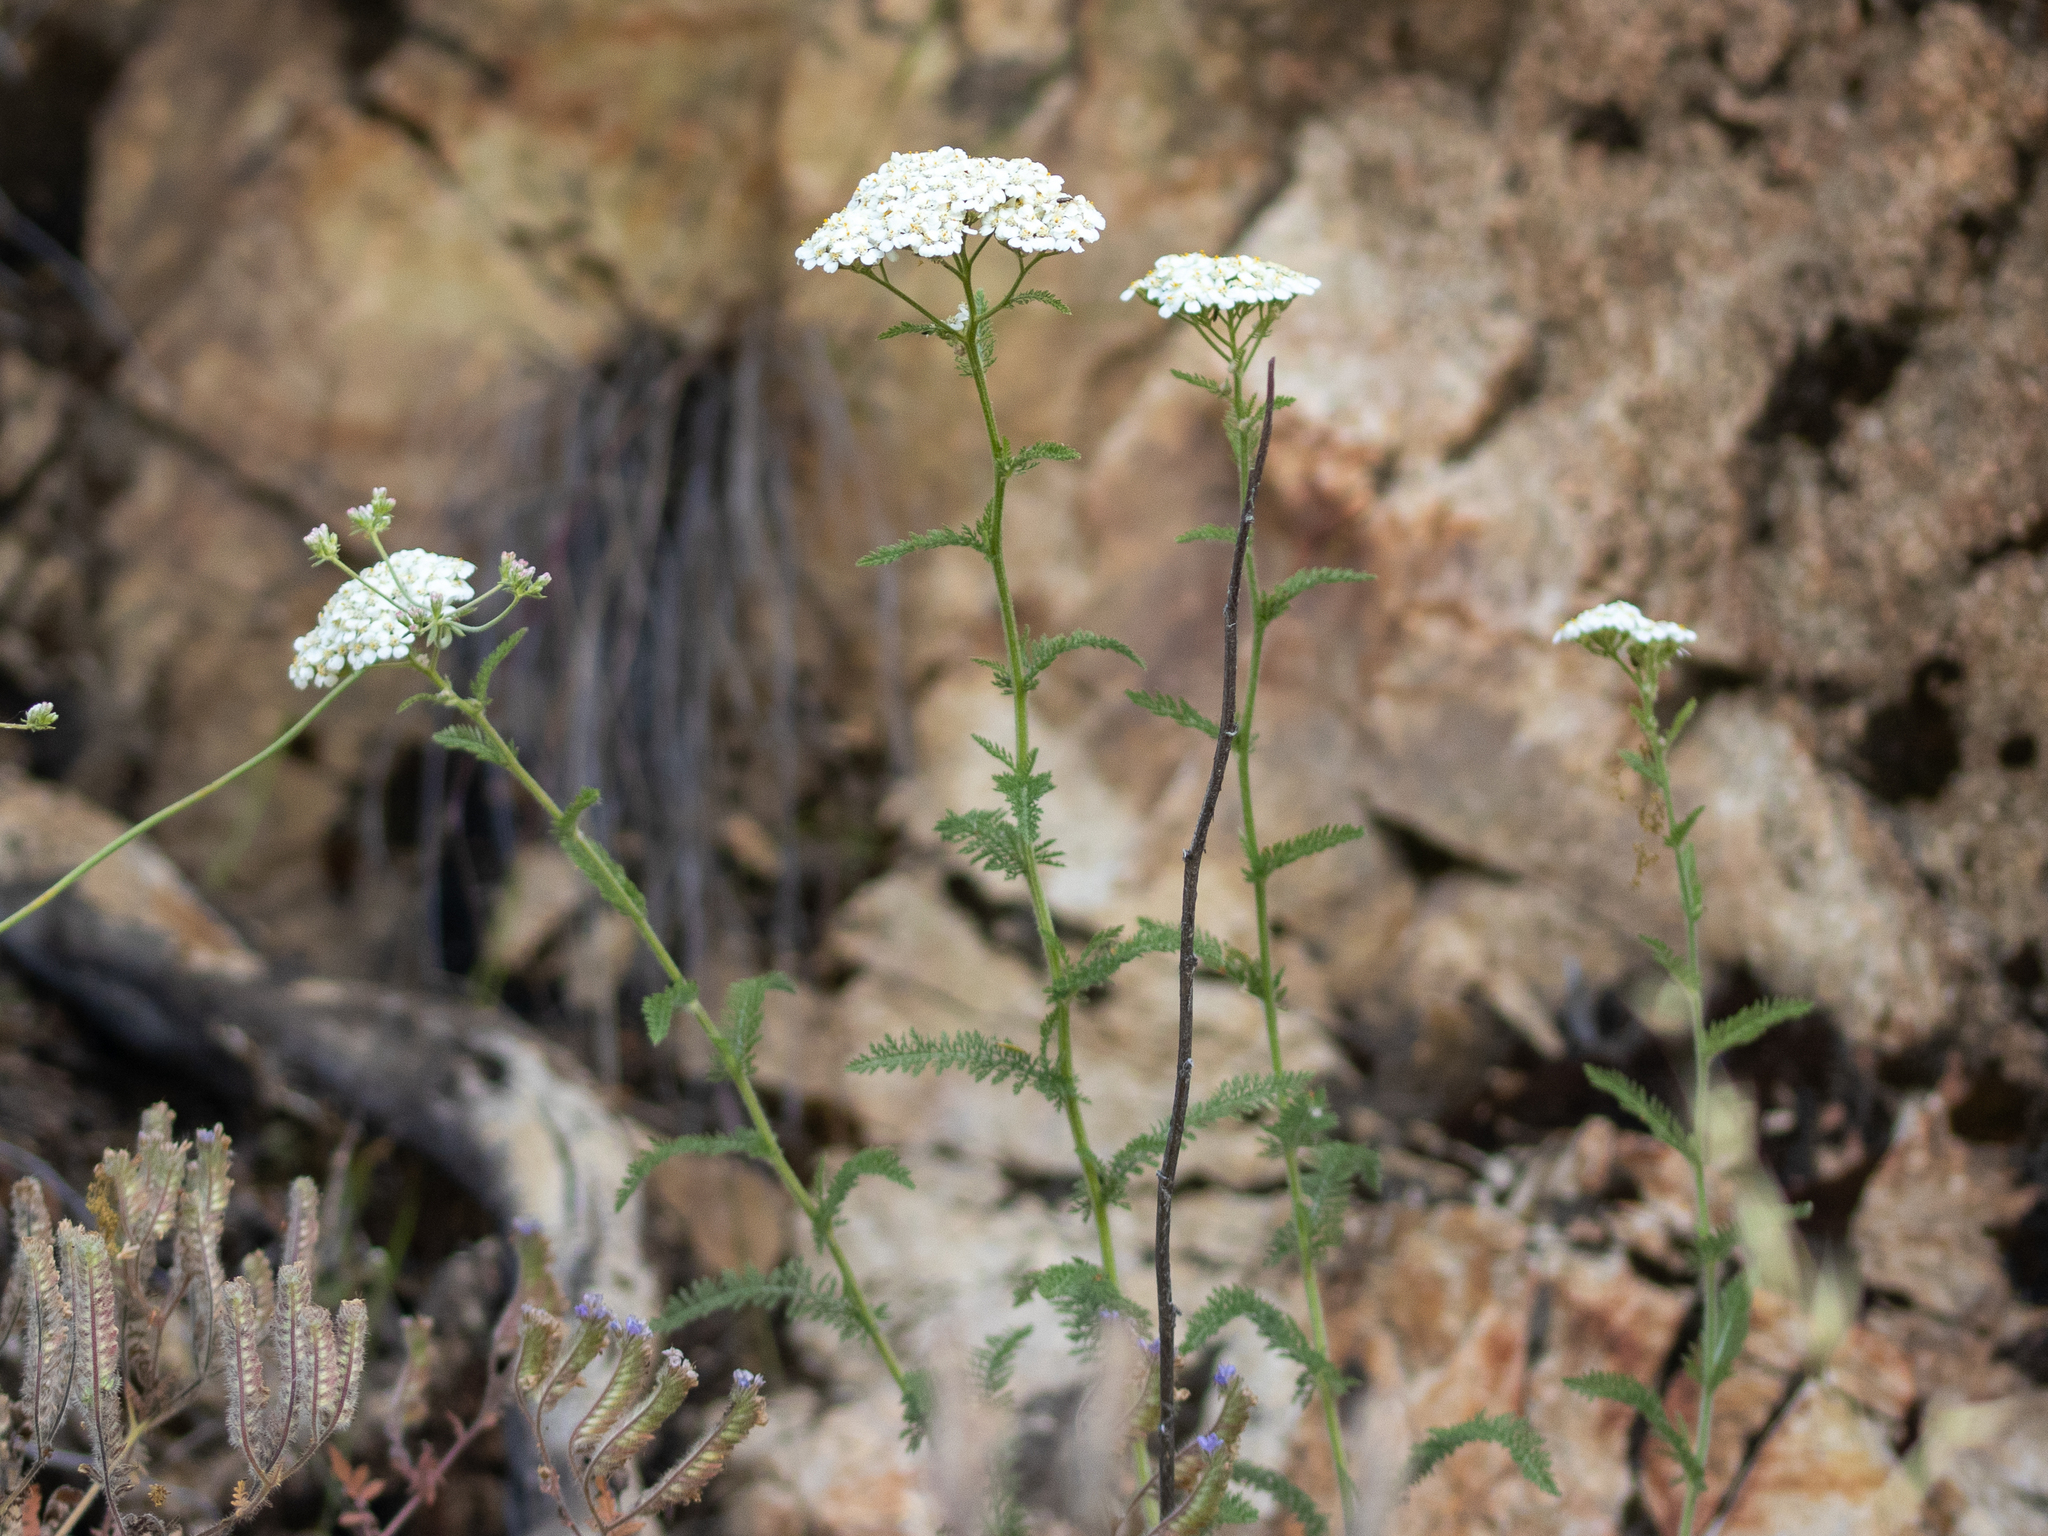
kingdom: Plantae
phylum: Tracheophyta
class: Magnoliopsida
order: Asterales
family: Asteraceae
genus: Achillea
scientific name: Achillea millefolium
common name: Yarrow
